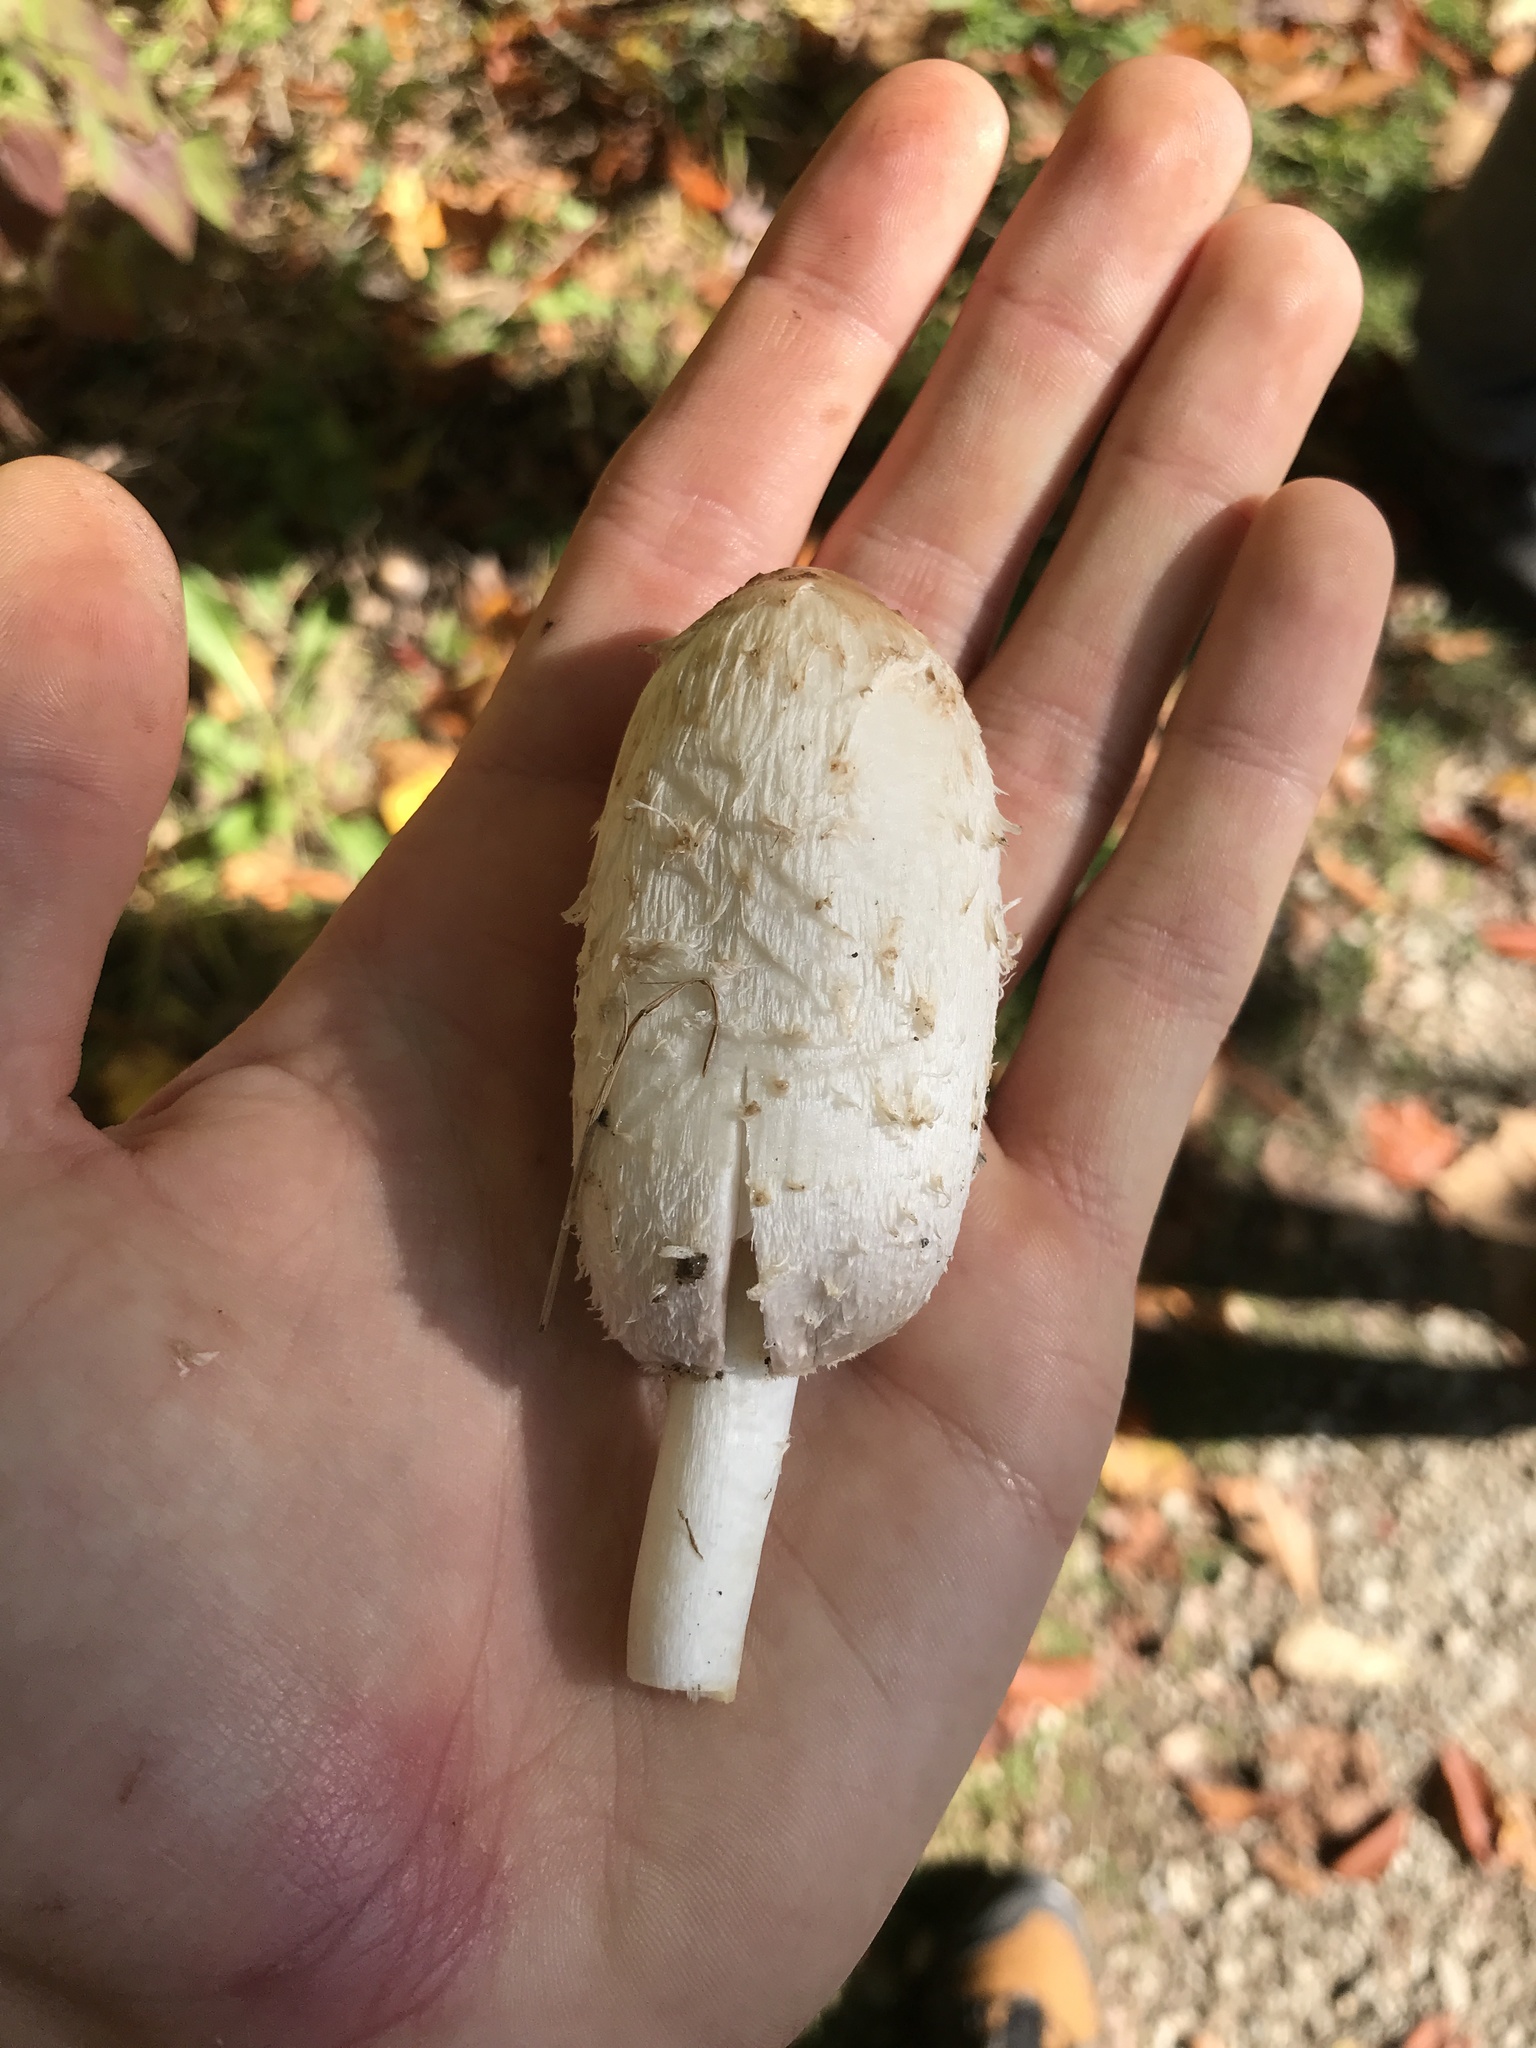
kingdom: Fungi
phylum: Basidiomycota
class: Agaricomycetes
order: Agaricales
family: Agaricaceae
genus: Coprinus
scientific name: Coprinus comatus
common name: Lawyer's wig
